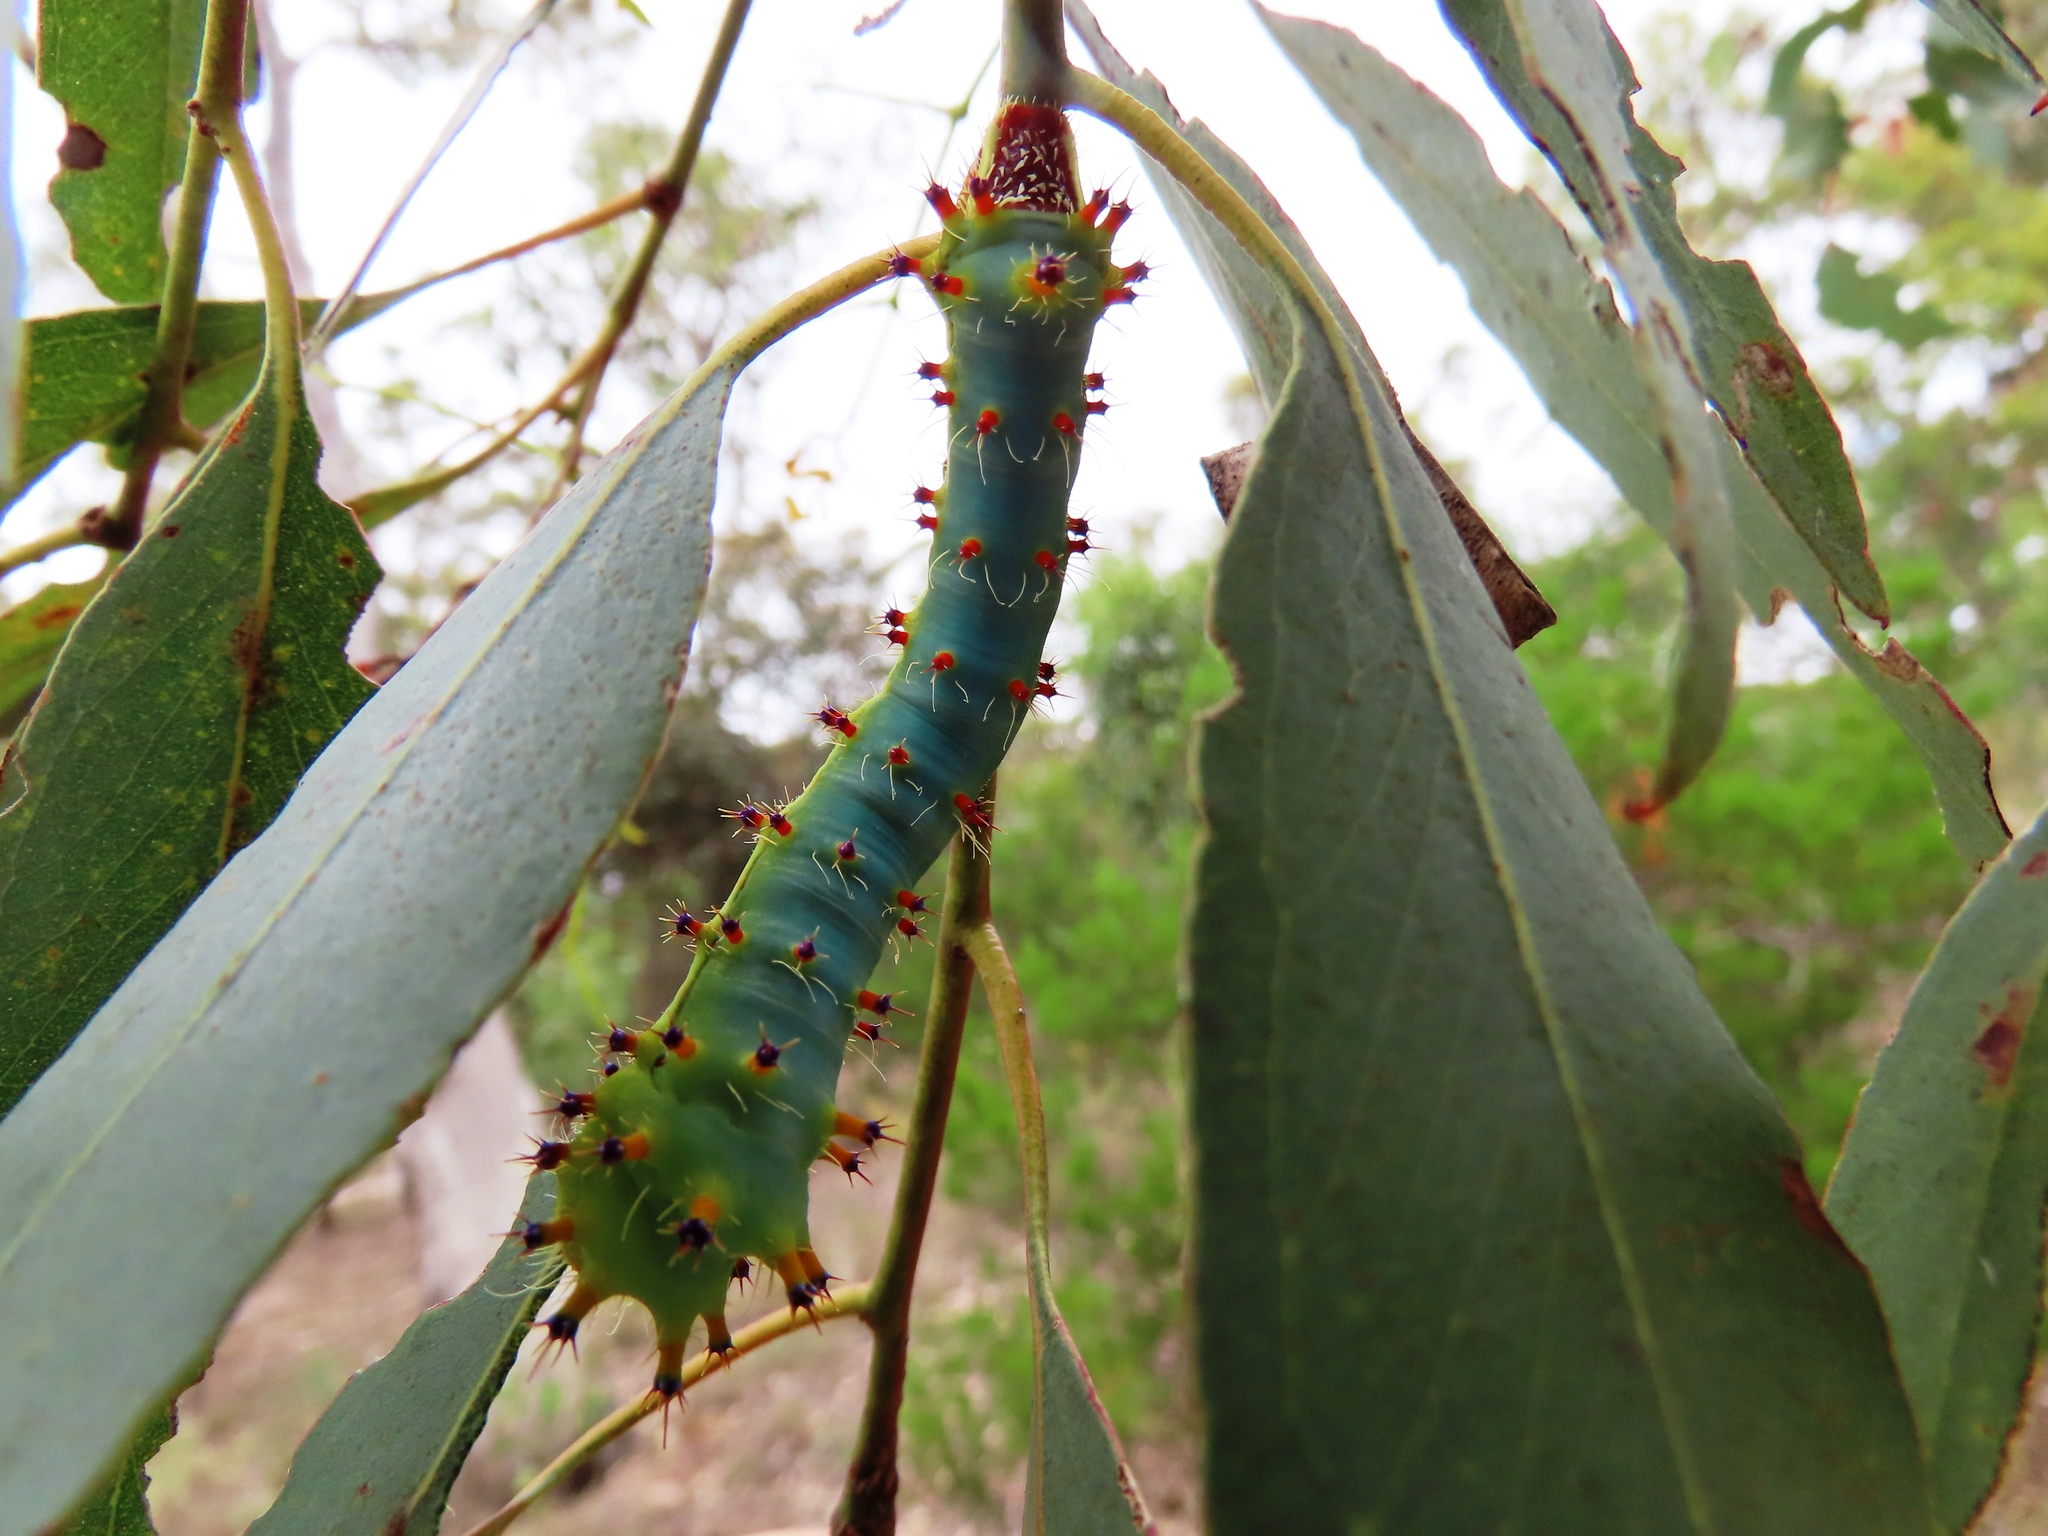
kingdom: Animalia
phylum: Arthropoda
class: Insecta
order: Lepidoptera
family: Saturniidae
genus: Opodiphthera
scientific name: Opodiphthera
